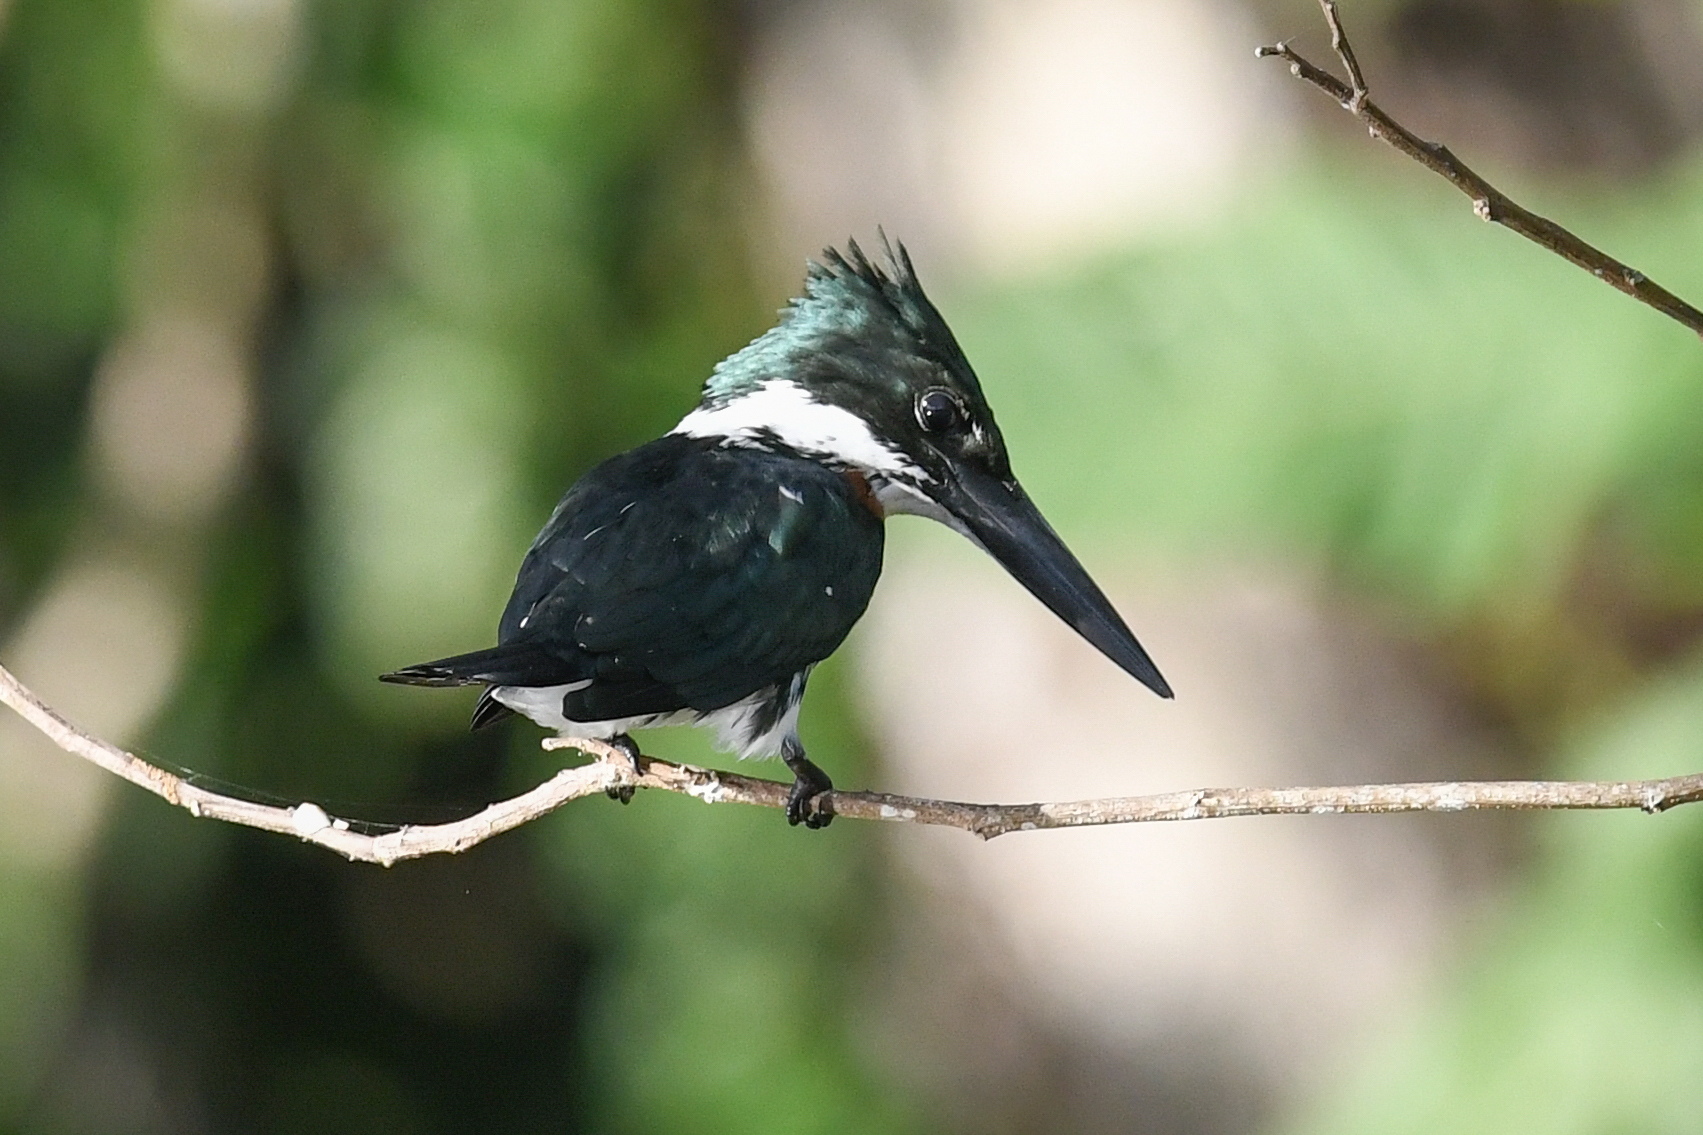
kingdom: Animalia
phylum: Chordata
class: Aves
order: Coraciiformes
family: Alcedinidae
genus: Chloroceryle
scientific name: Chloroceryle amazona
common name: Amazon kingfisher
